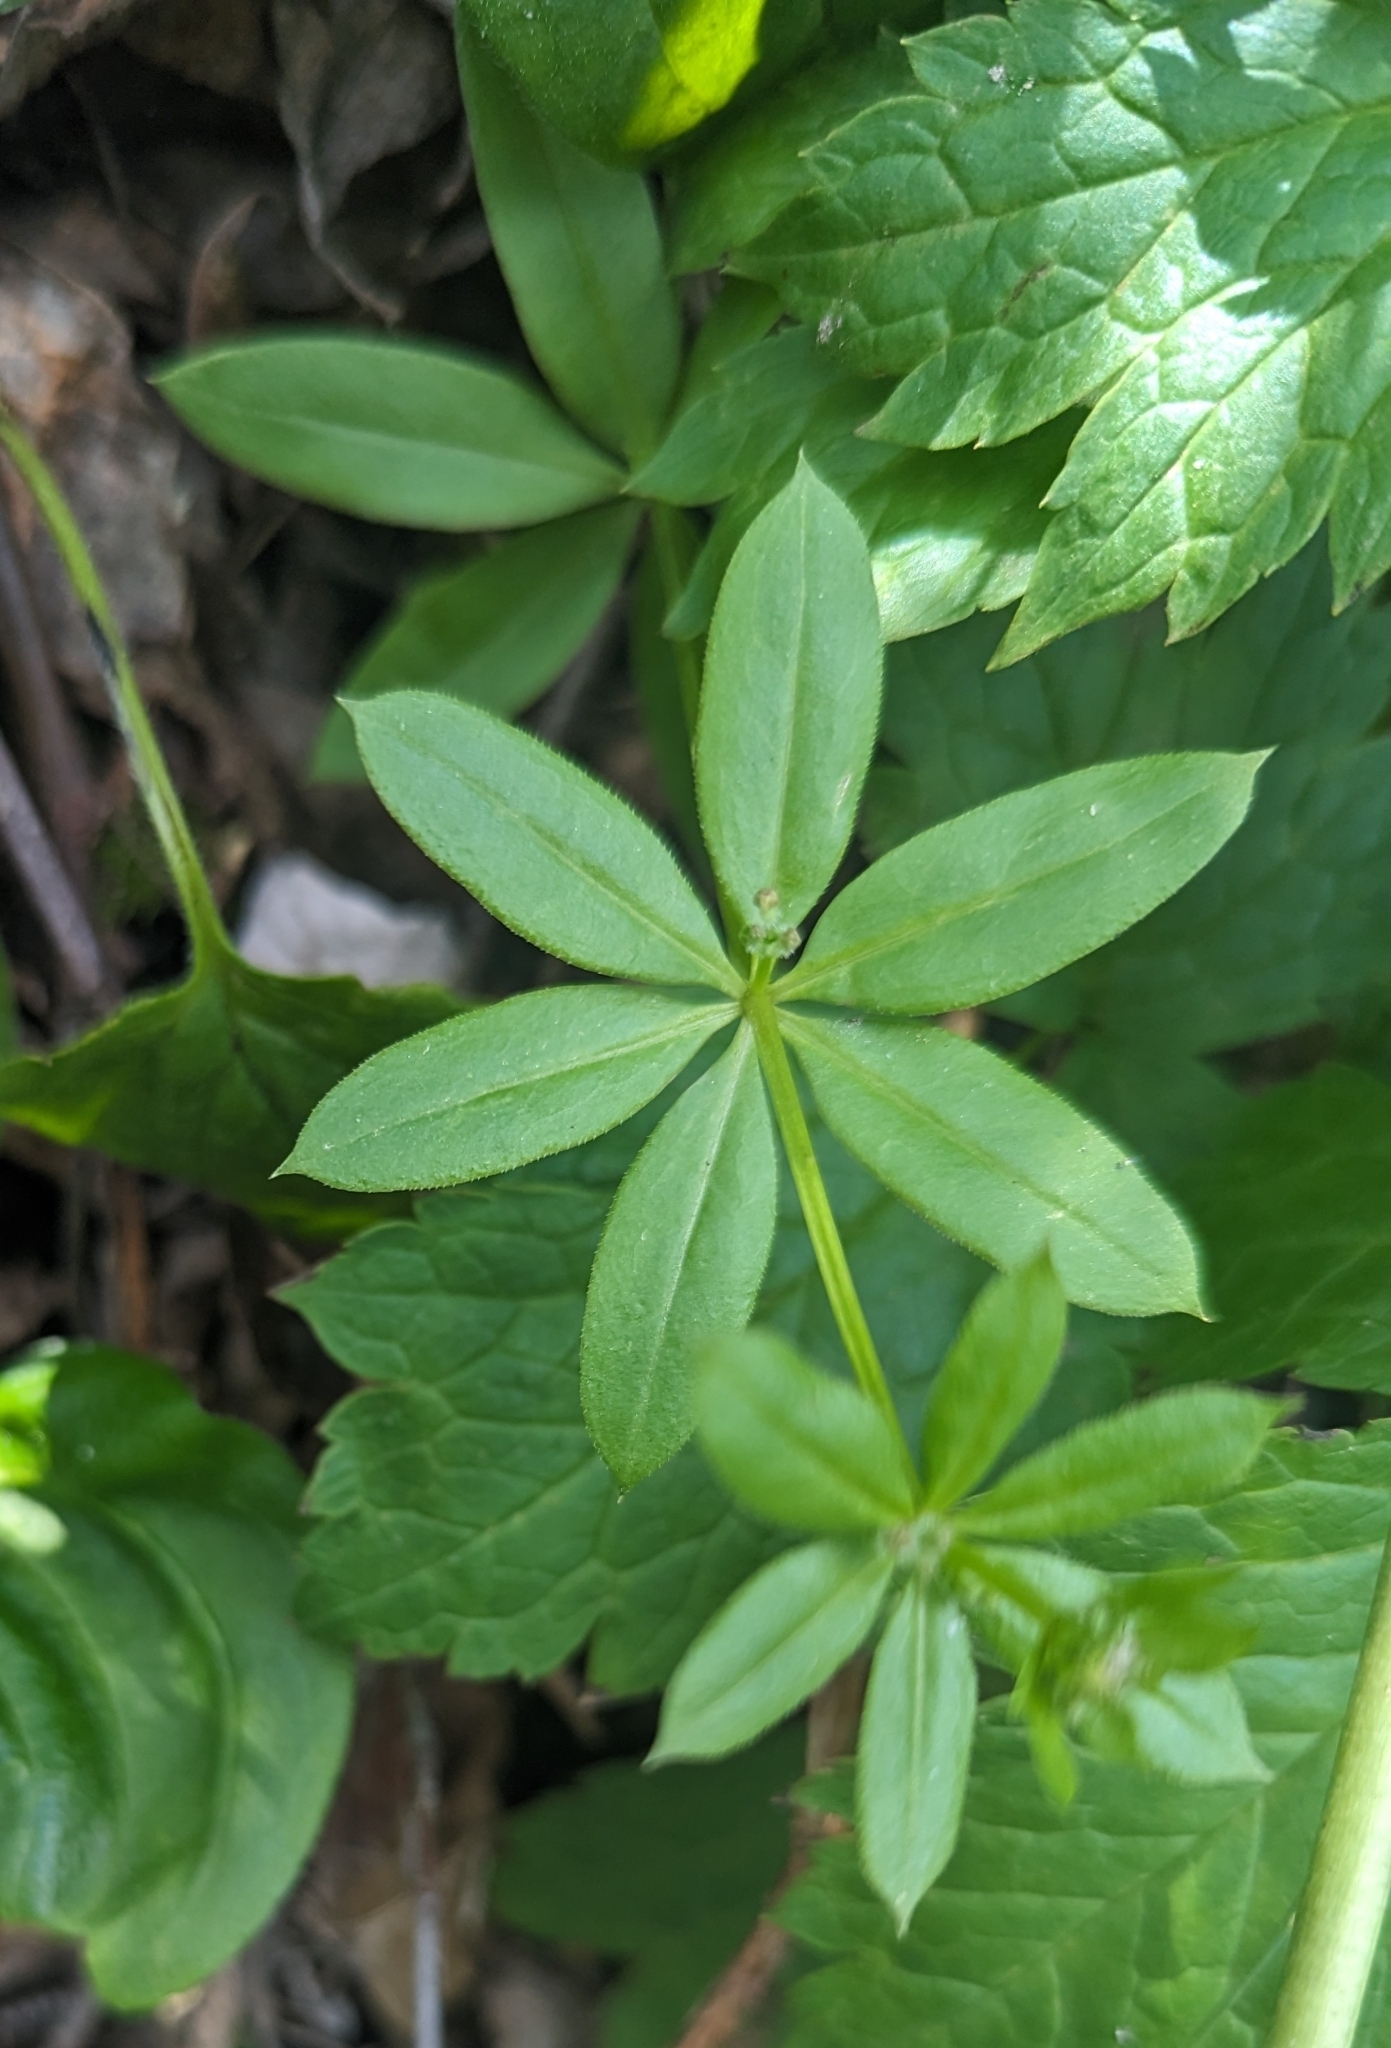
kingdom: Plantae
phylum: Tracheophyta
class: Magnoliopsida
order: Gentianales
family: Rubiaceae
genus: Galium
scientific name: Galium triflorum
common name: Fragrant bedstraw
